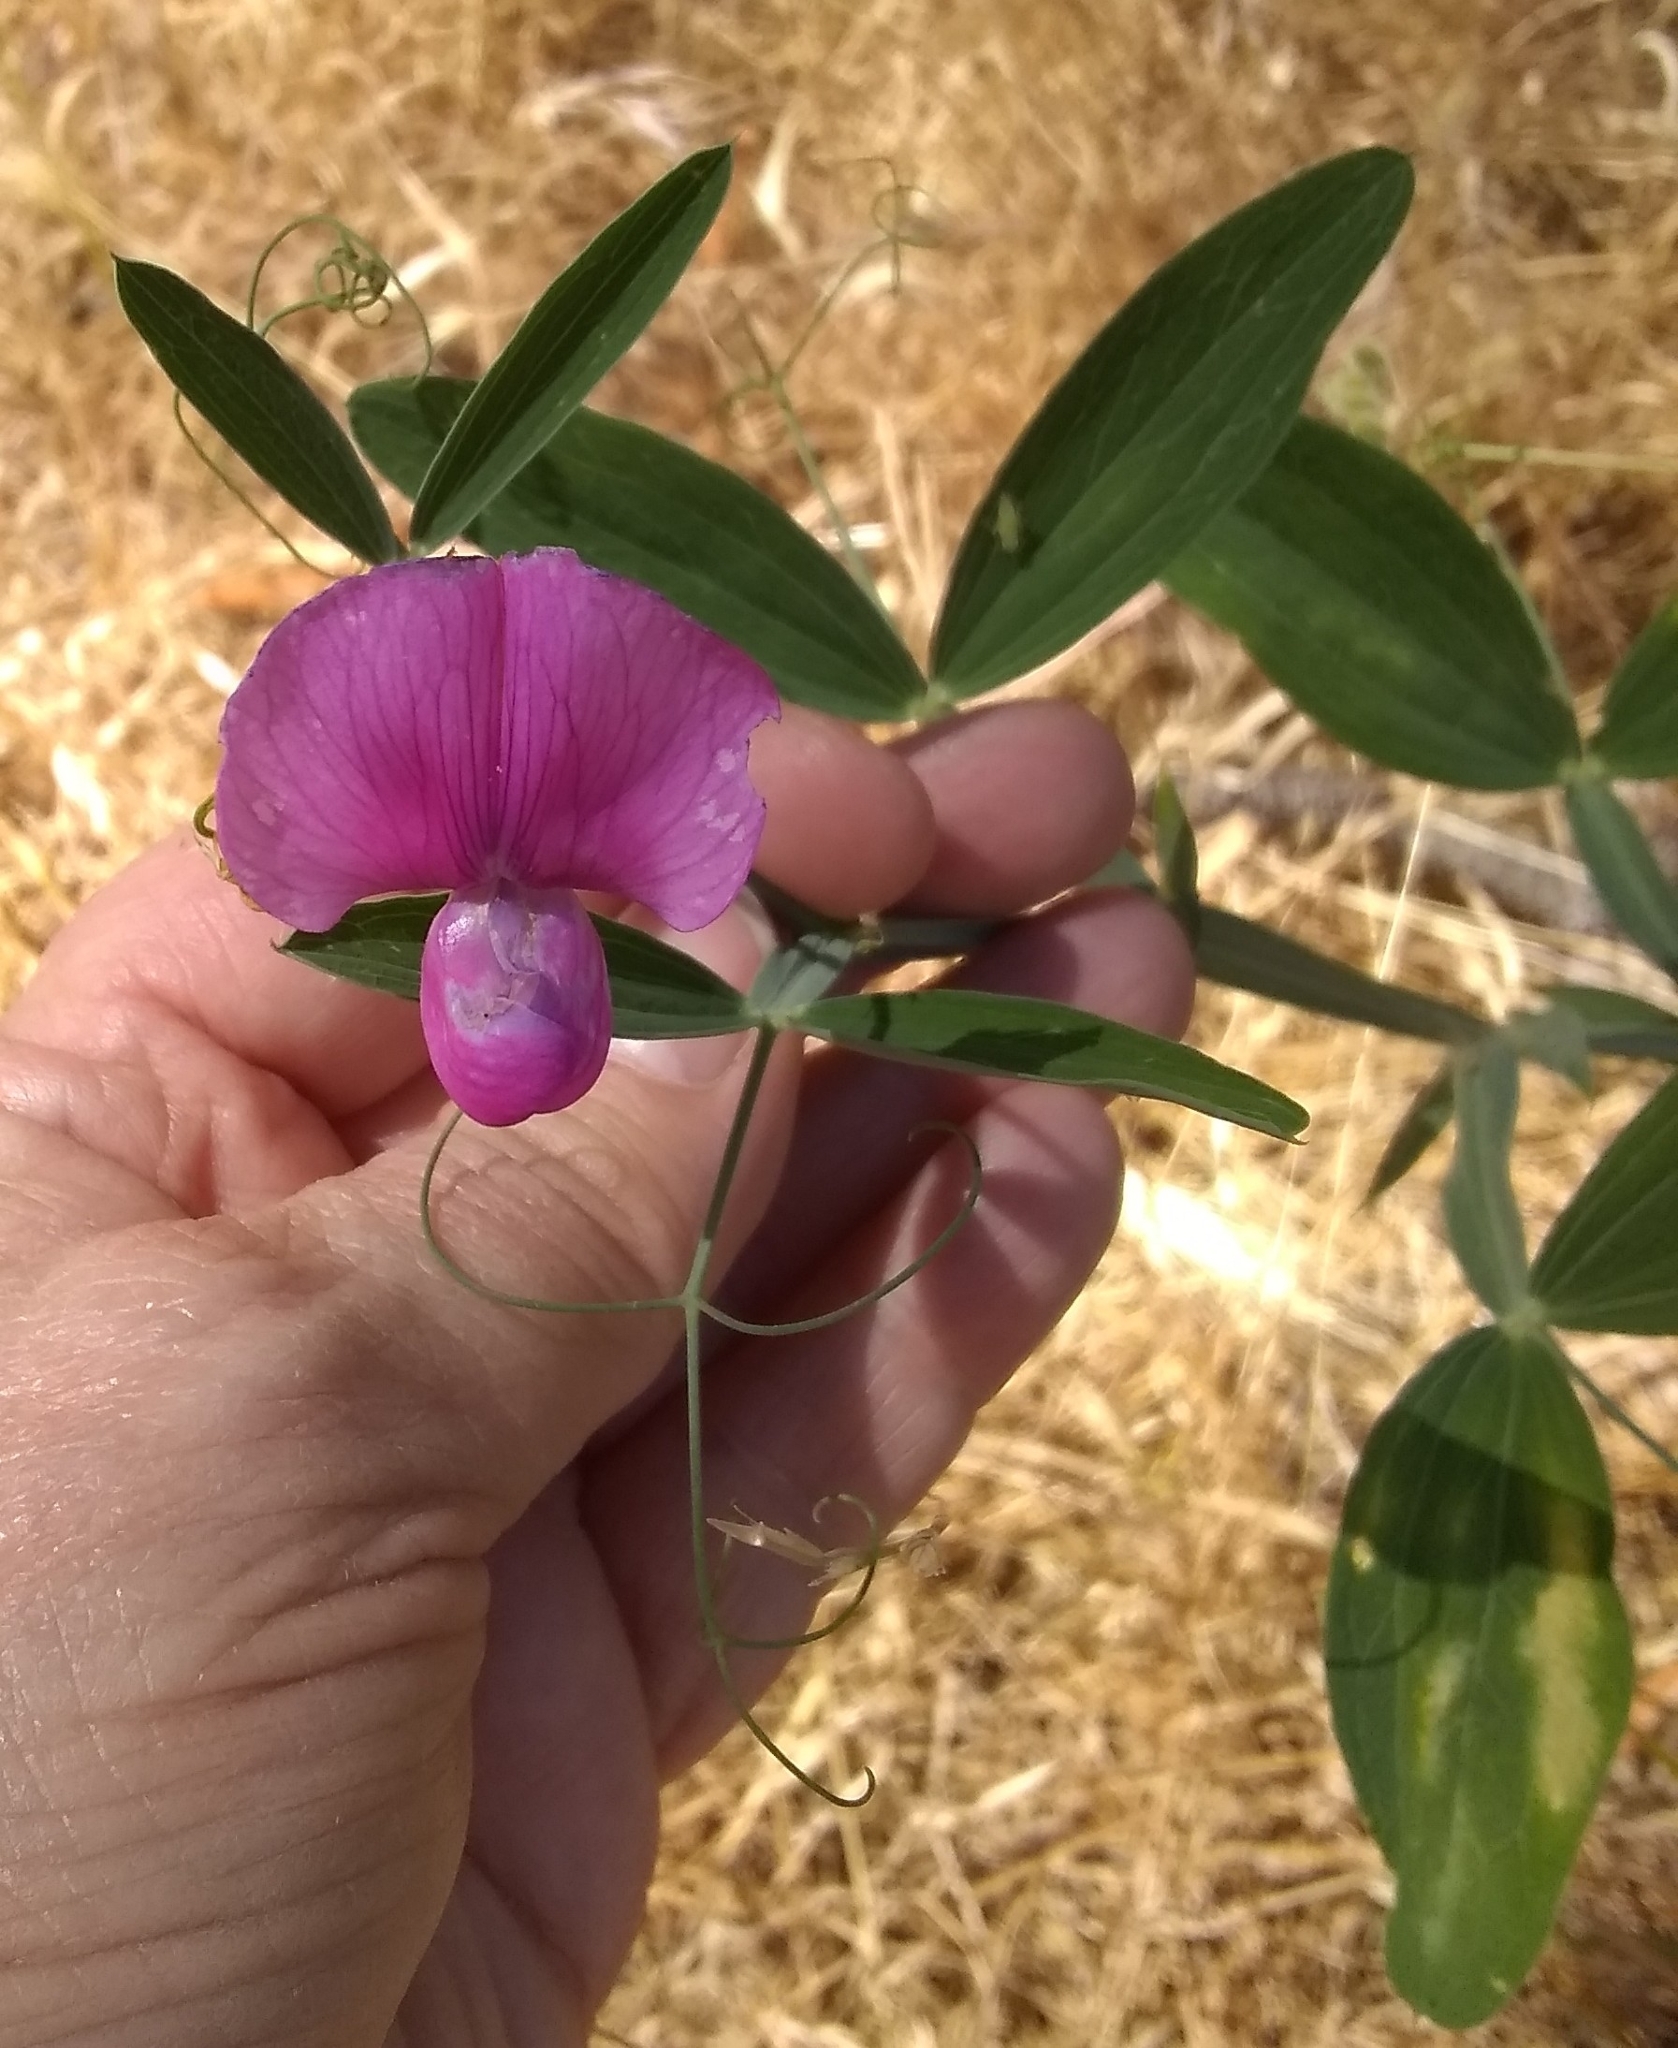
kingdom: Plantae
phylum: Tracheophyta
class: Magnoliopsida
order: Fabales
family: Fabaceae
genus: Lathyrus
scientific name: Lathyrus latifolius
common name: Perennial pea
